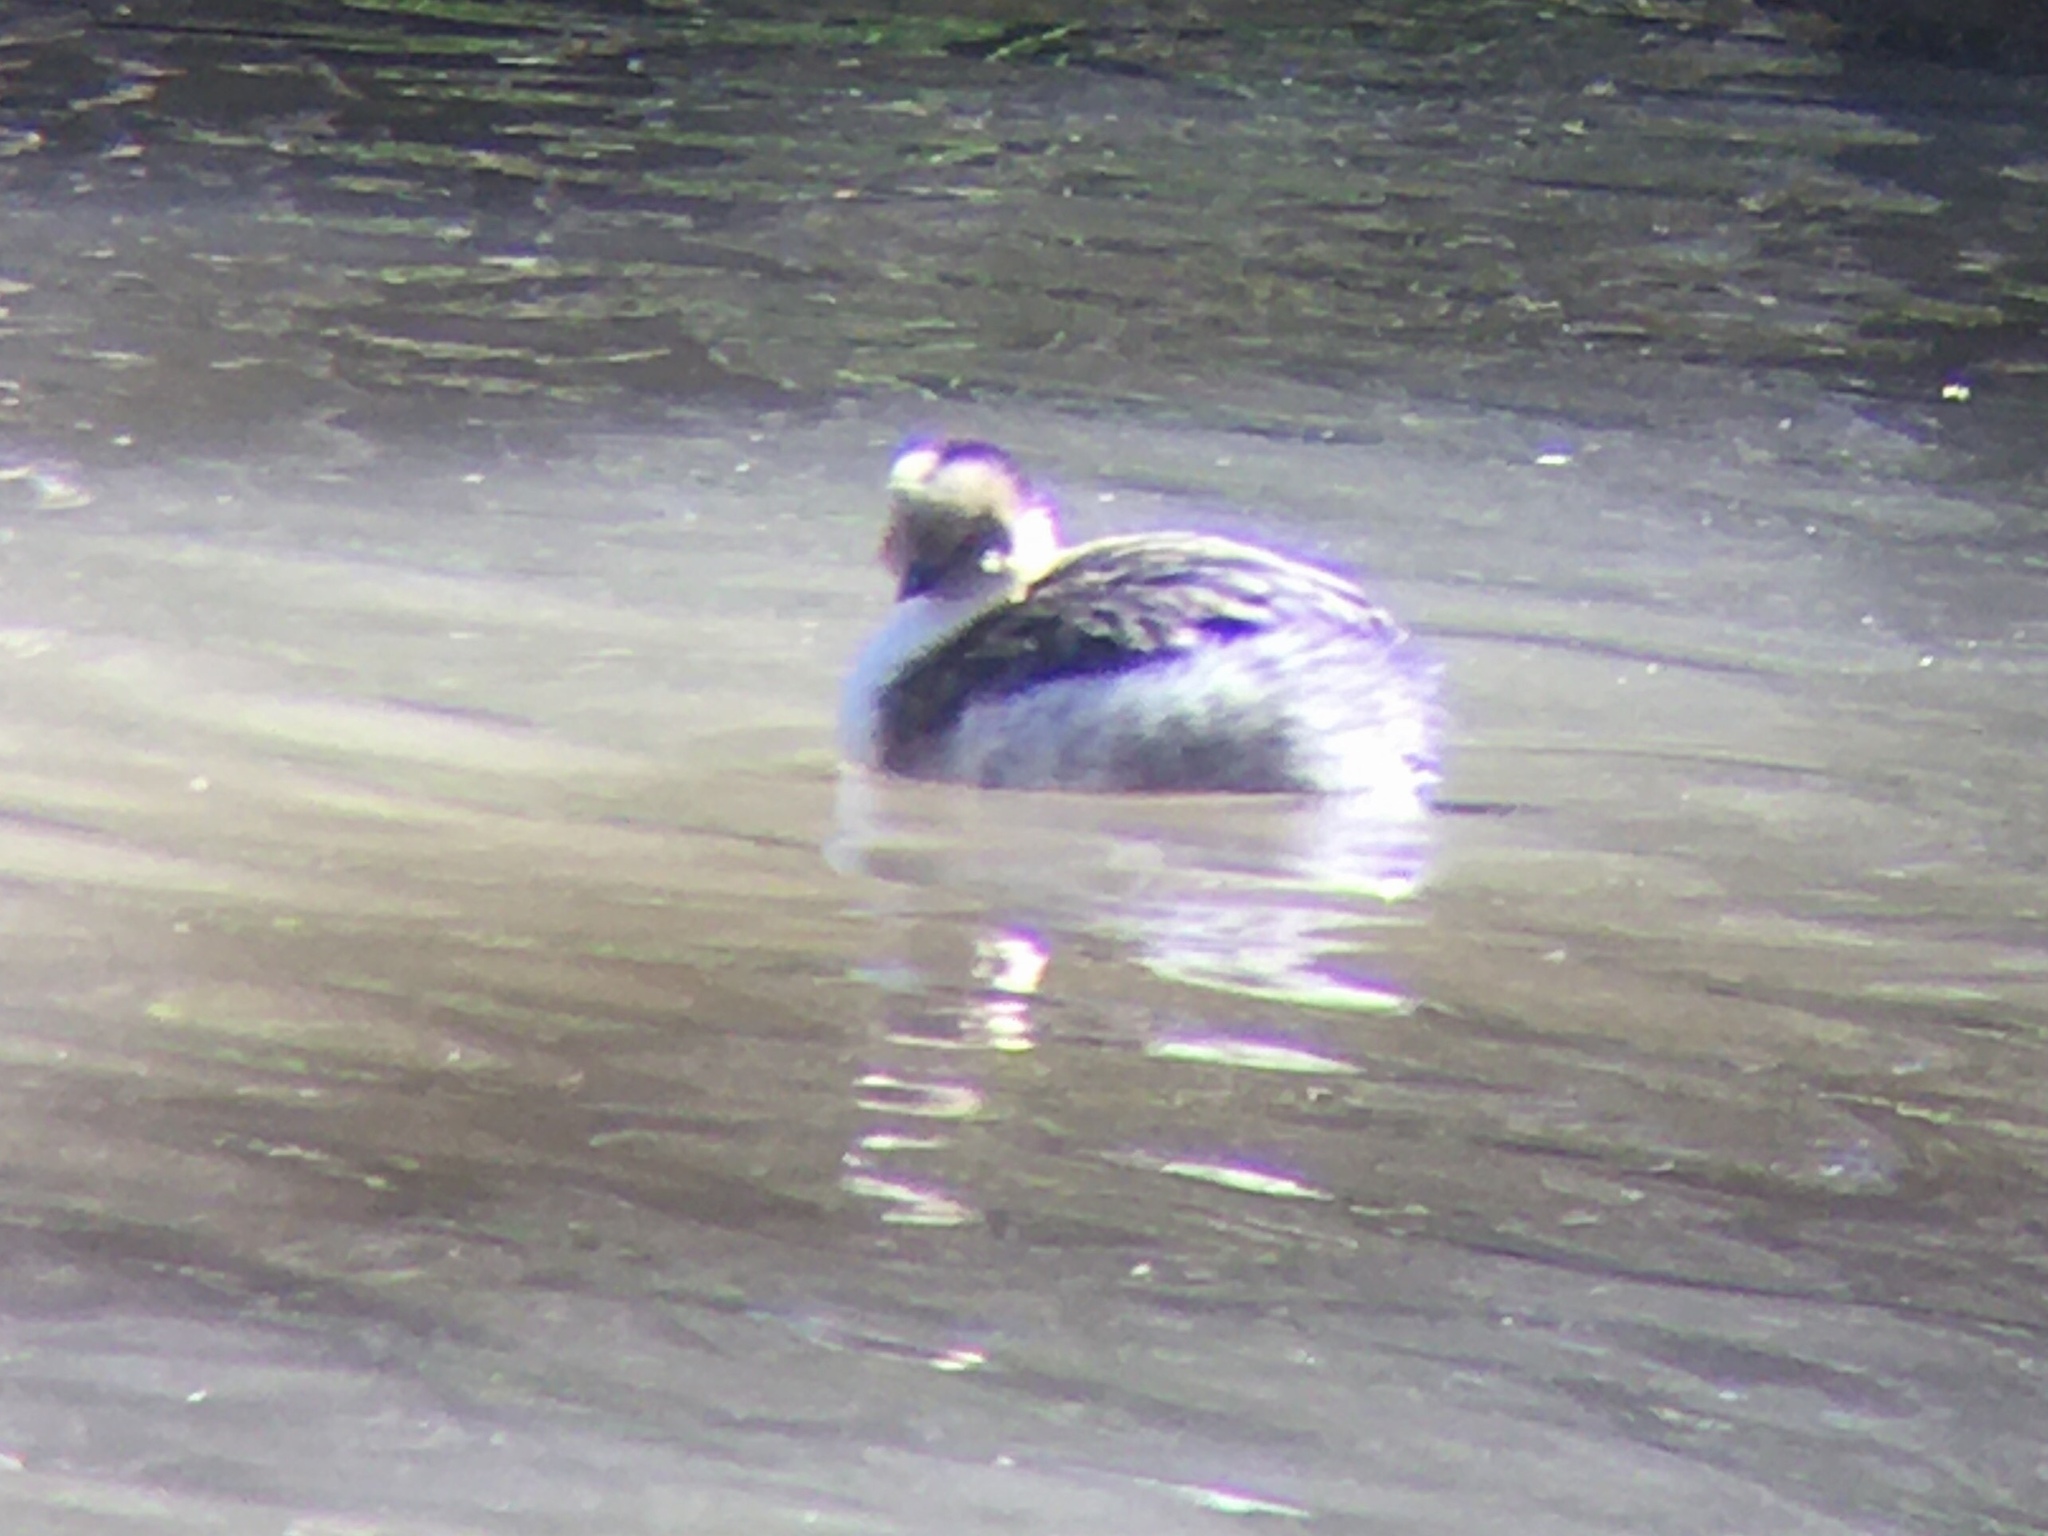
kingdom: Animalia
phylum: Chordata
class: Aves
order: Podicipediformes
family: Podicipedidae
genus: Podiceps
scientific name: Podiceps occipitalis
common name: Silvery grebe
